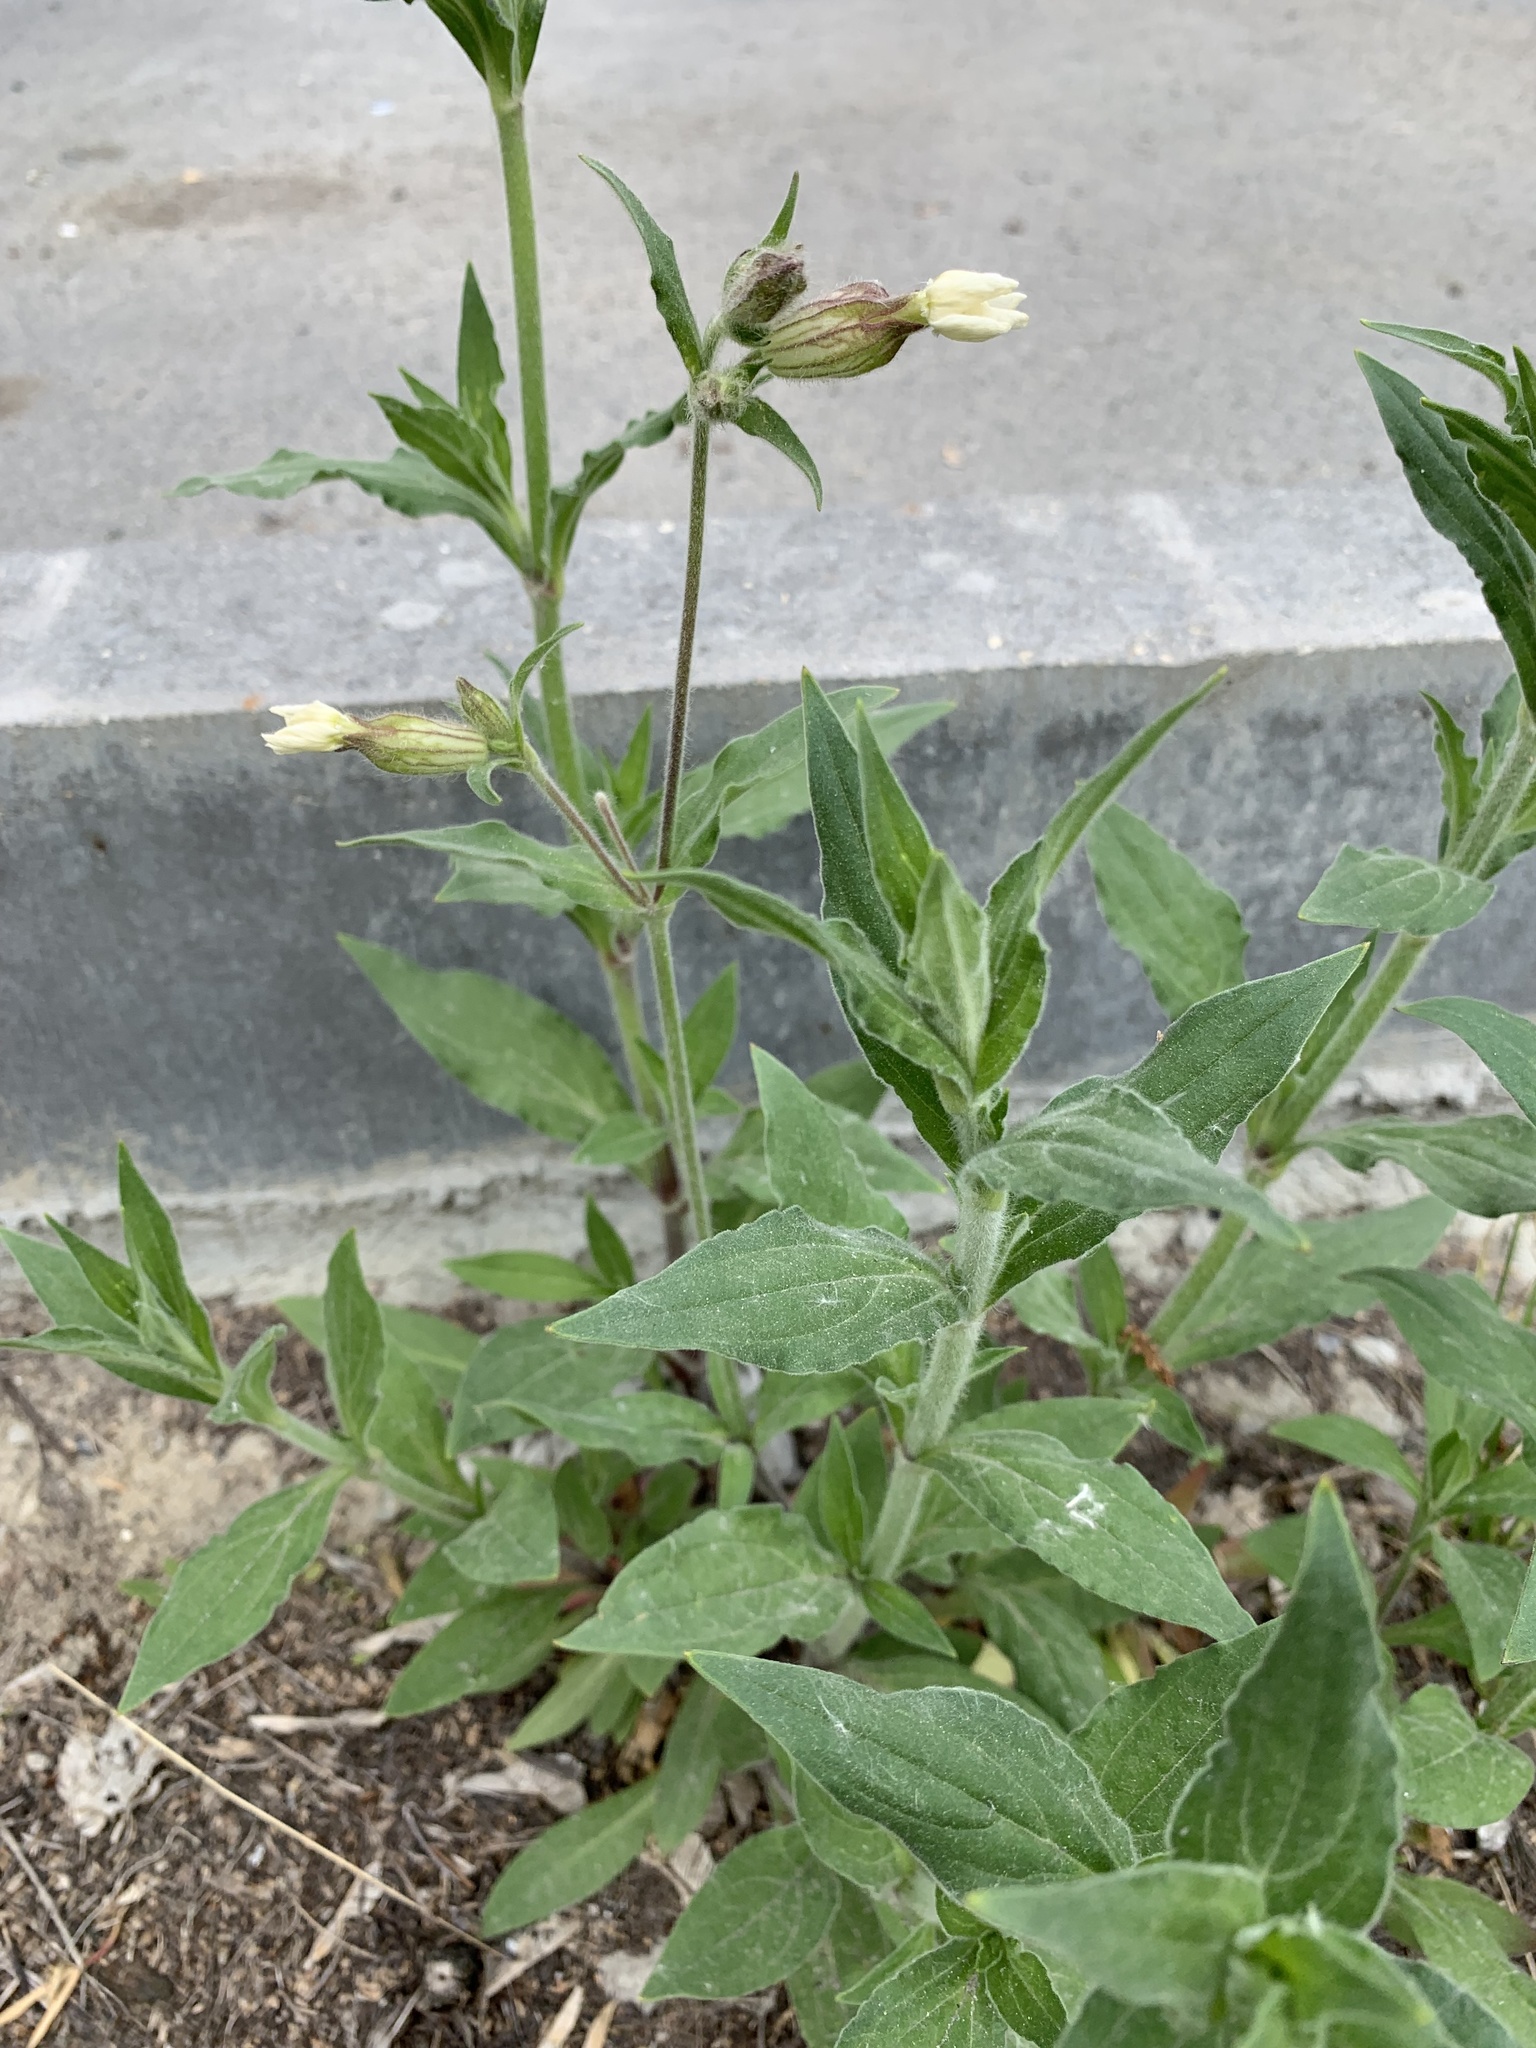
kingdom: Plantae
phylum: Tracheophyta
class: Magnoliopsida
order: Caryophyllales
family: Caryophyllaceae
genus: Silene
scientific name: Silene latifolia
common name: White campion
